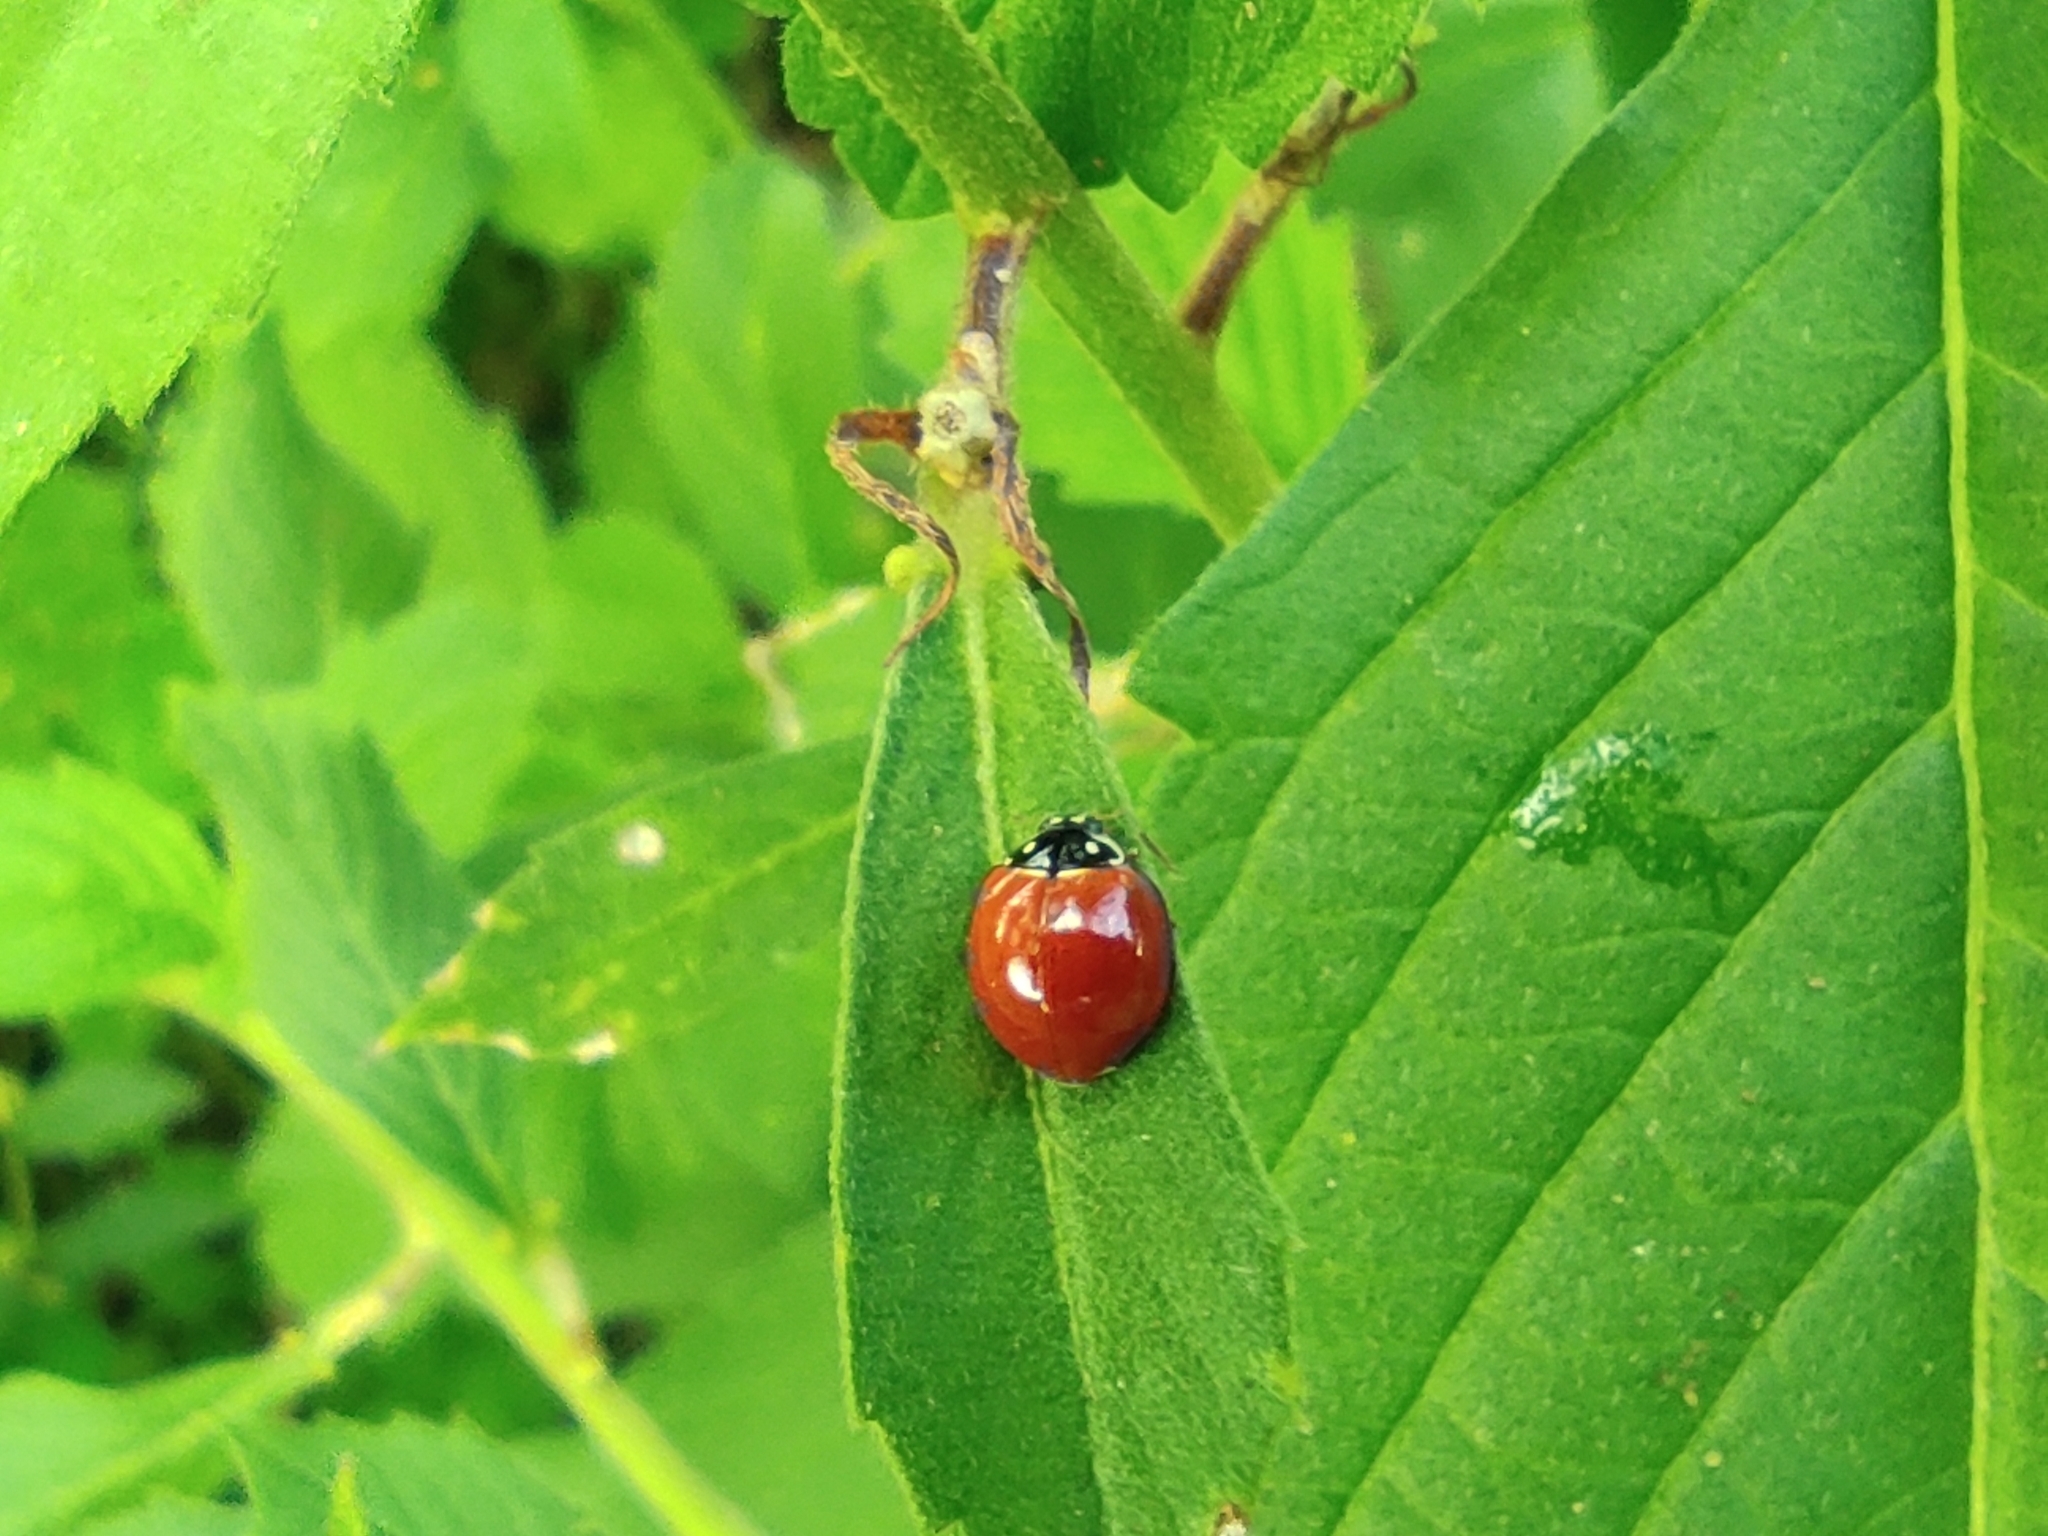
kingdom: Animalia
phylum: Arthropoda
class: Insecta
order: Coleoptera
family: Coccinellidae
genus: Cycloneda
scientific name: Cycloneda sanguinea
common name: Ladybird beetle
